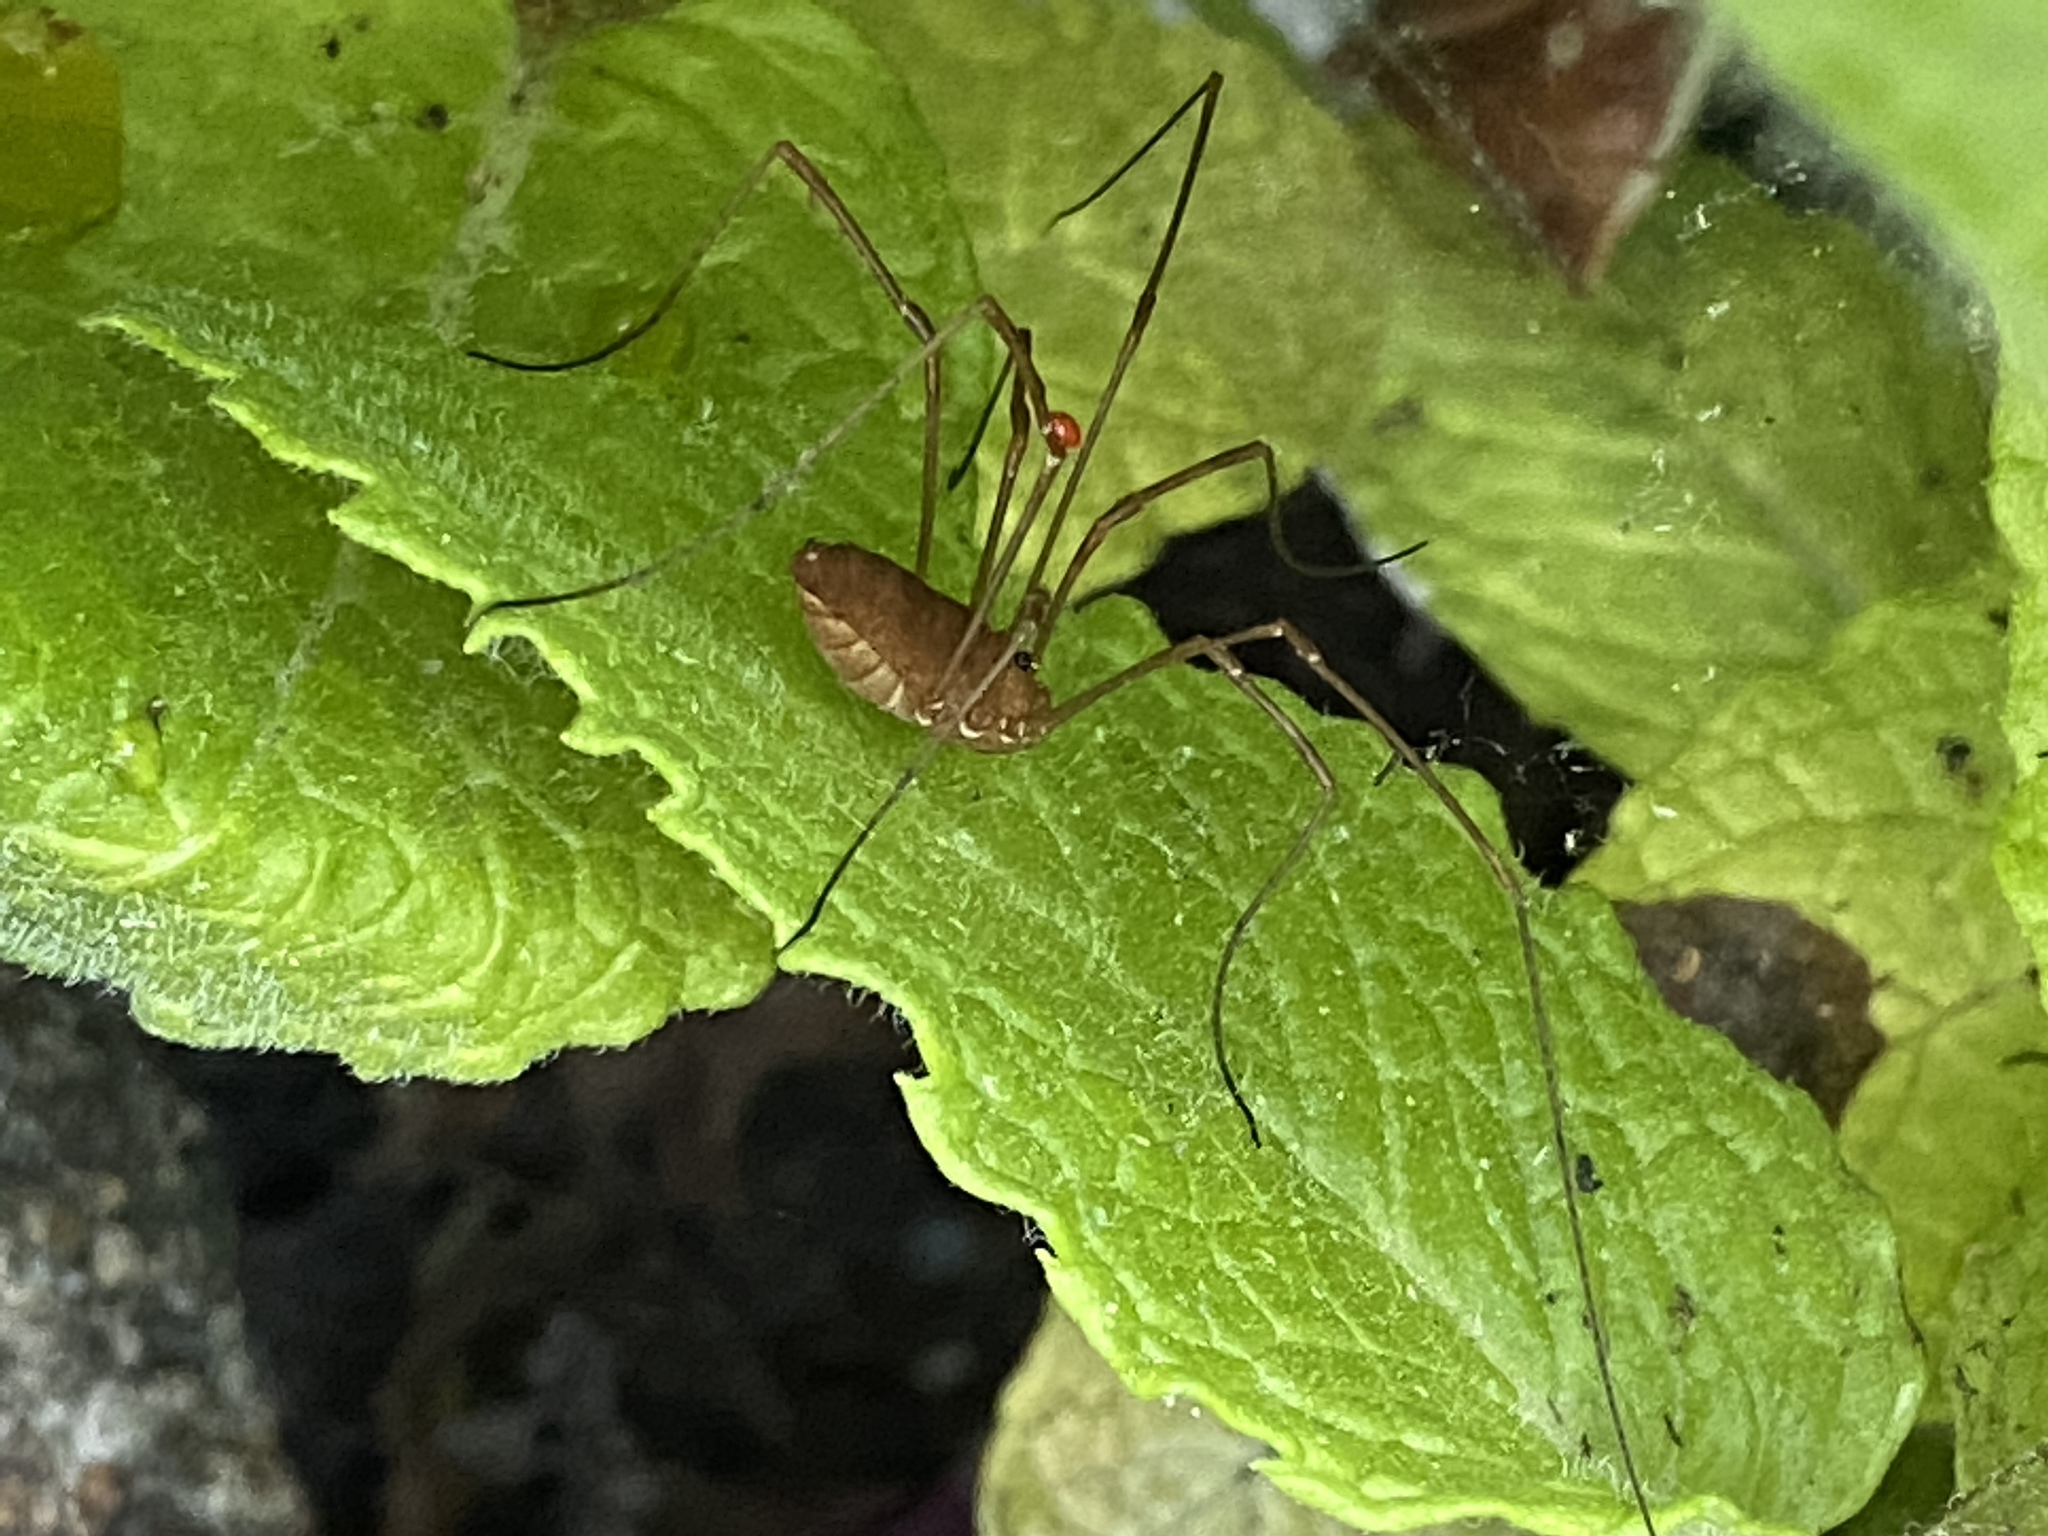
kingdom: Animalia
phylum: Arthropoda
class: Arachnida
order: Opiliones
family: Sclerosomatidae
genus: Leiobunum
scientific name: Leiobunum ventricosum
